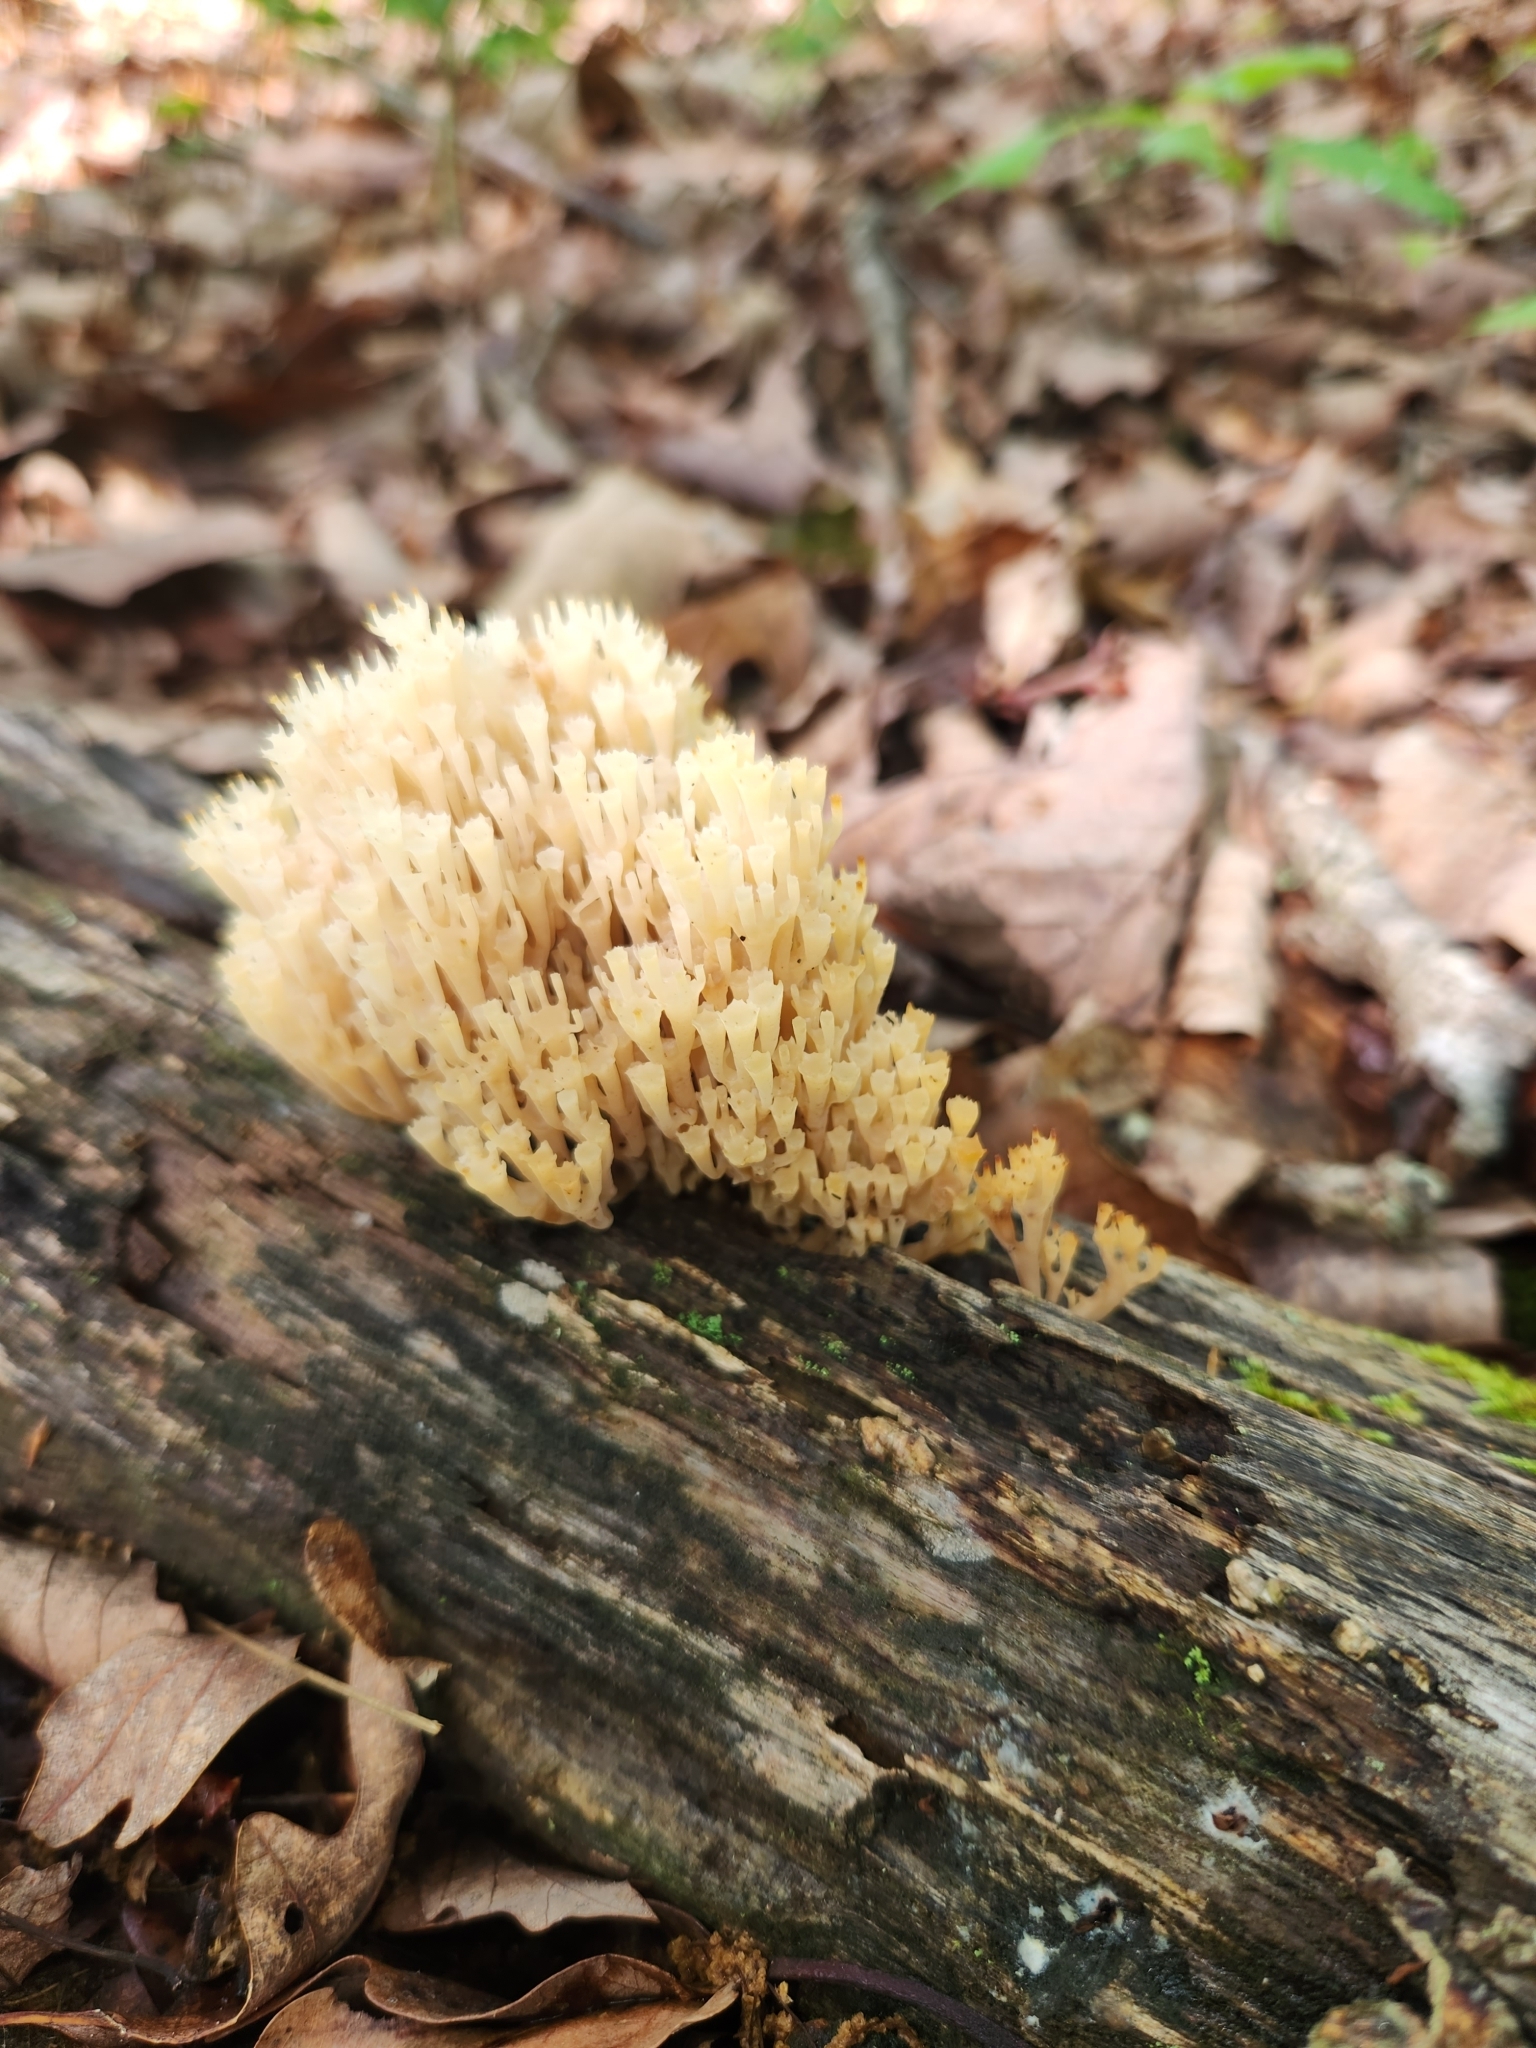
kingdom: Fungi
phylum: Basidiomycota
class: Agaricomycetes
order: Russulales
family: Auriscalpiaceae
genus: Artomyces
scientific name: Artomyces pyxidatus
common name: Crown-tipped coral fungus
